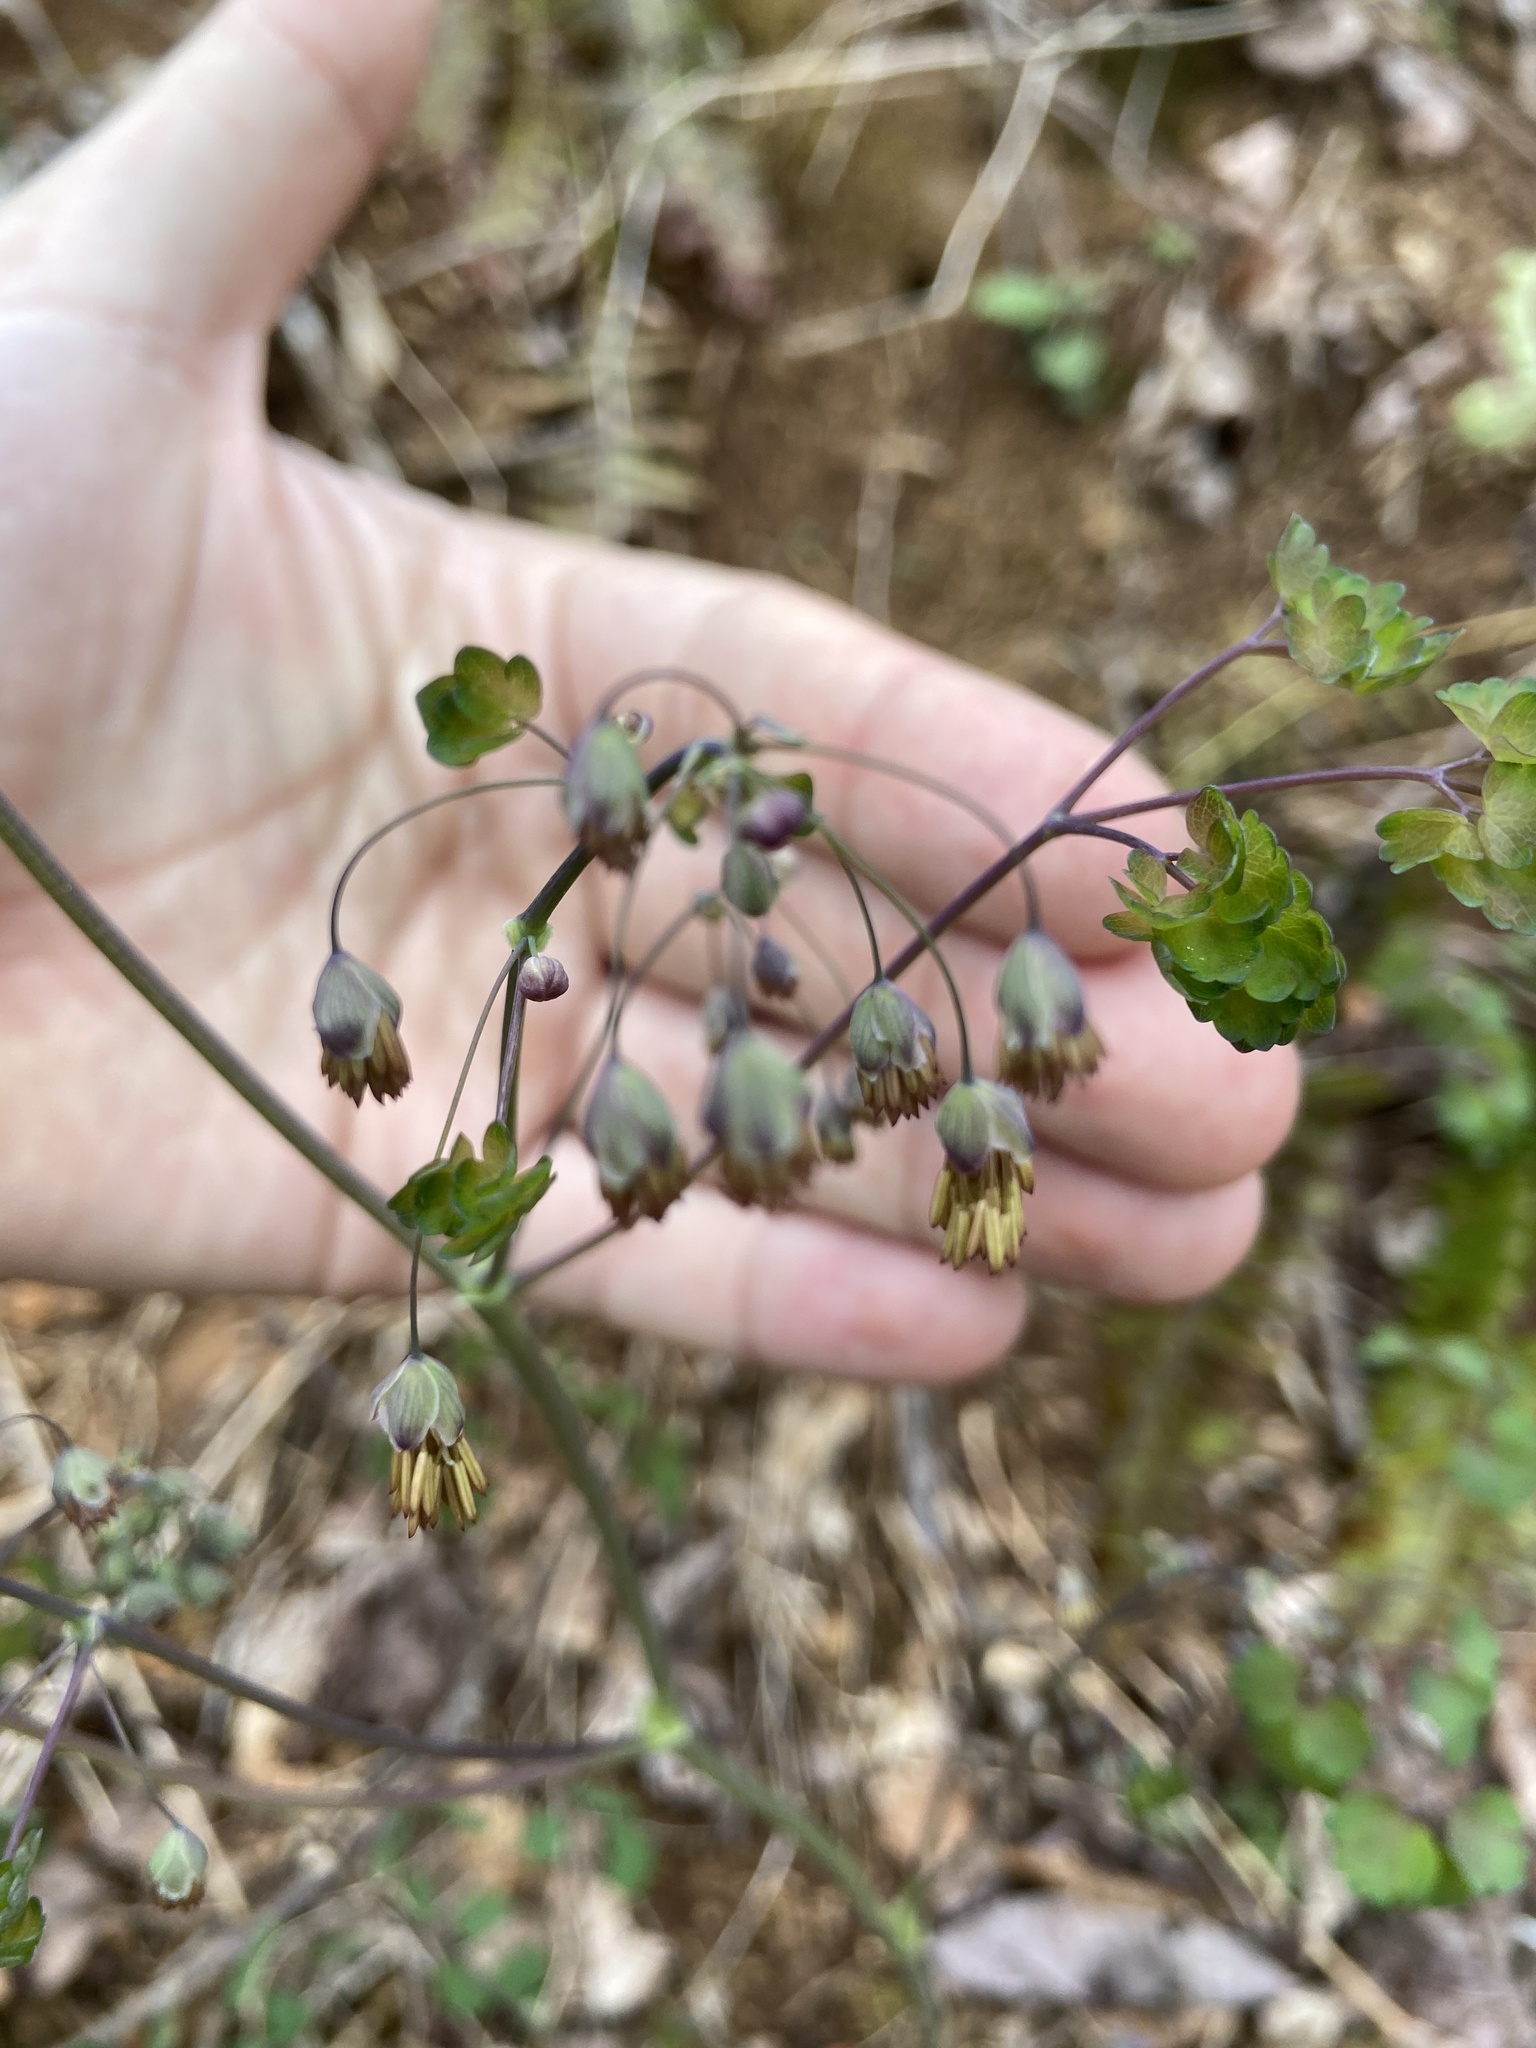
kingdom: Plantae
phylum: Tracheophyta
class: Magnoliopsida
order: Ranunculales
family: Ranunculaceae
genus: Thalictrum
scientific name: Thalictrum dioicum
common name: Early meadow-rue
